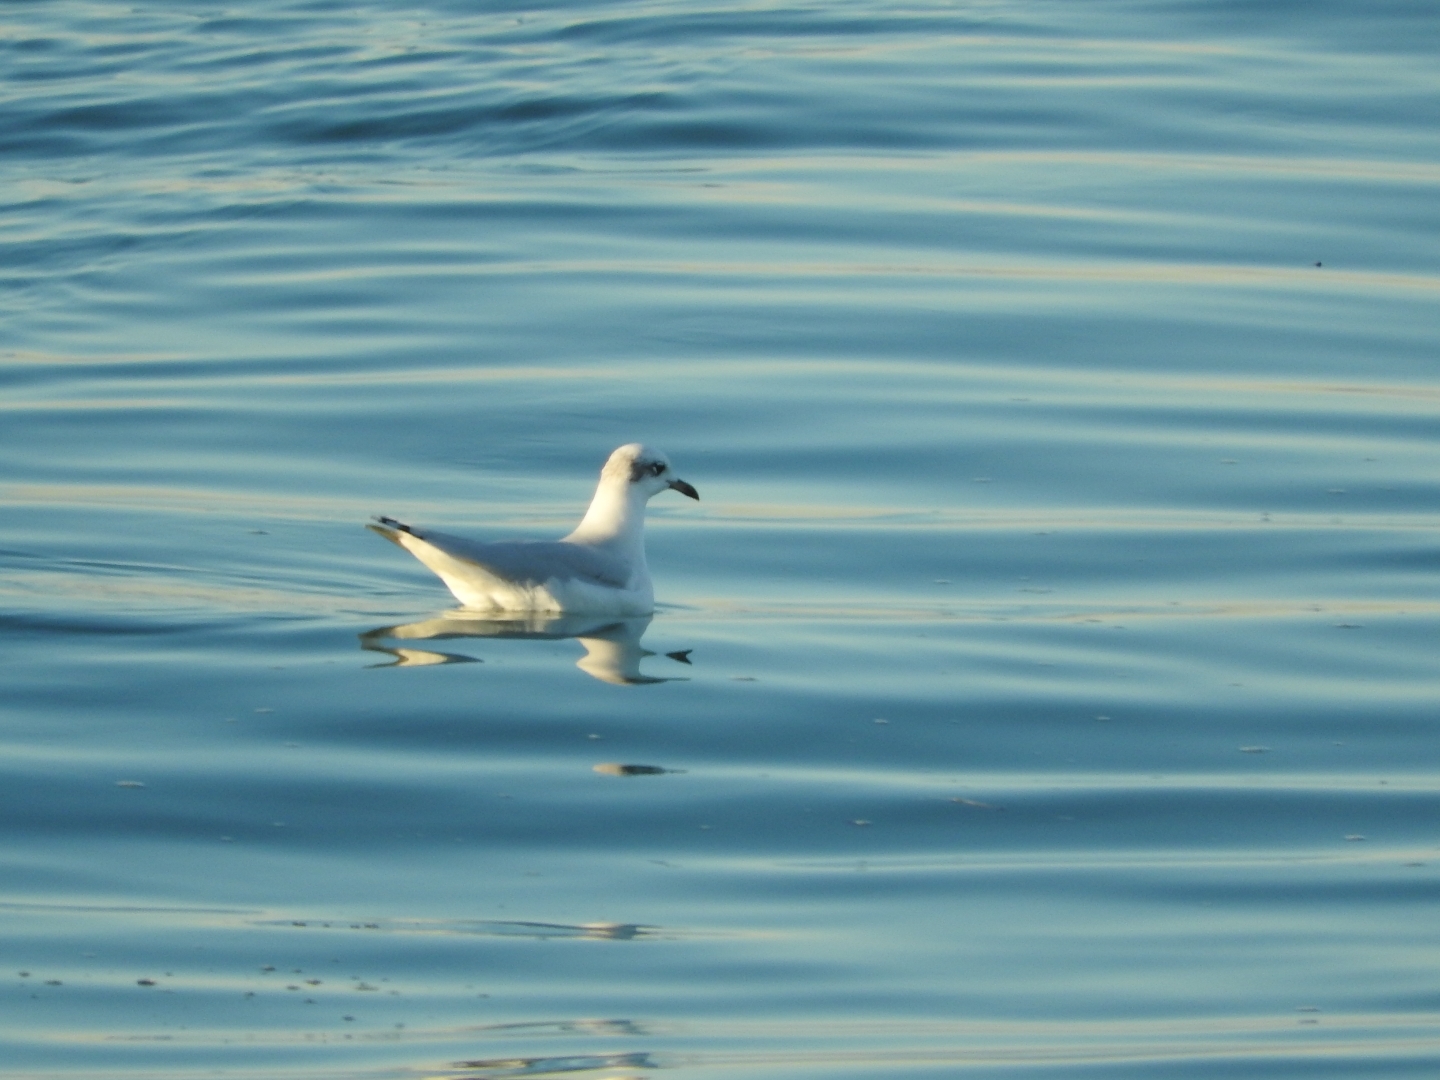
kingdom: Animalia
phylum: Chordata
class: Aves
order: Charadriiformes
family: Laridae
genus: Chroicocephalus
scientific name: Chroicocephalus ridibundus
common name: Black-headed gull
